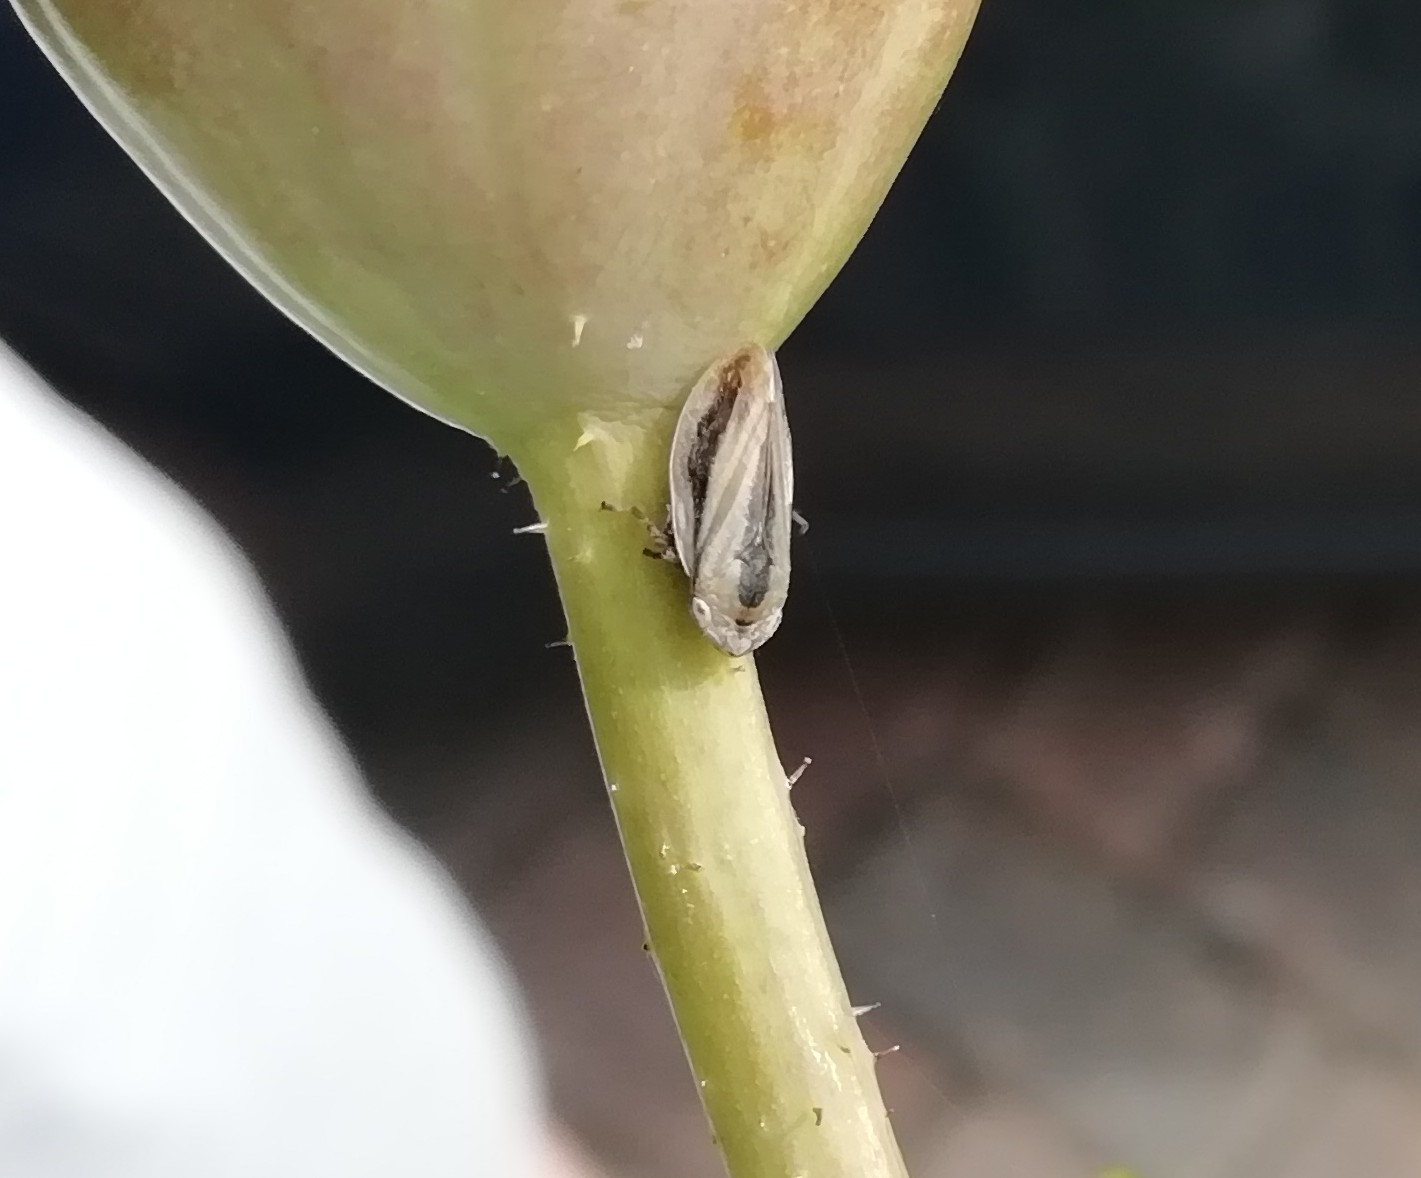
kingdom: Animalia
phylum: Arthropoda
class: Insecta
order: Hemiptera
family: Aphrophoridae
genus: Philaenus
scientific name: Philaenus spumarius
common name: Meadow spittlebug
